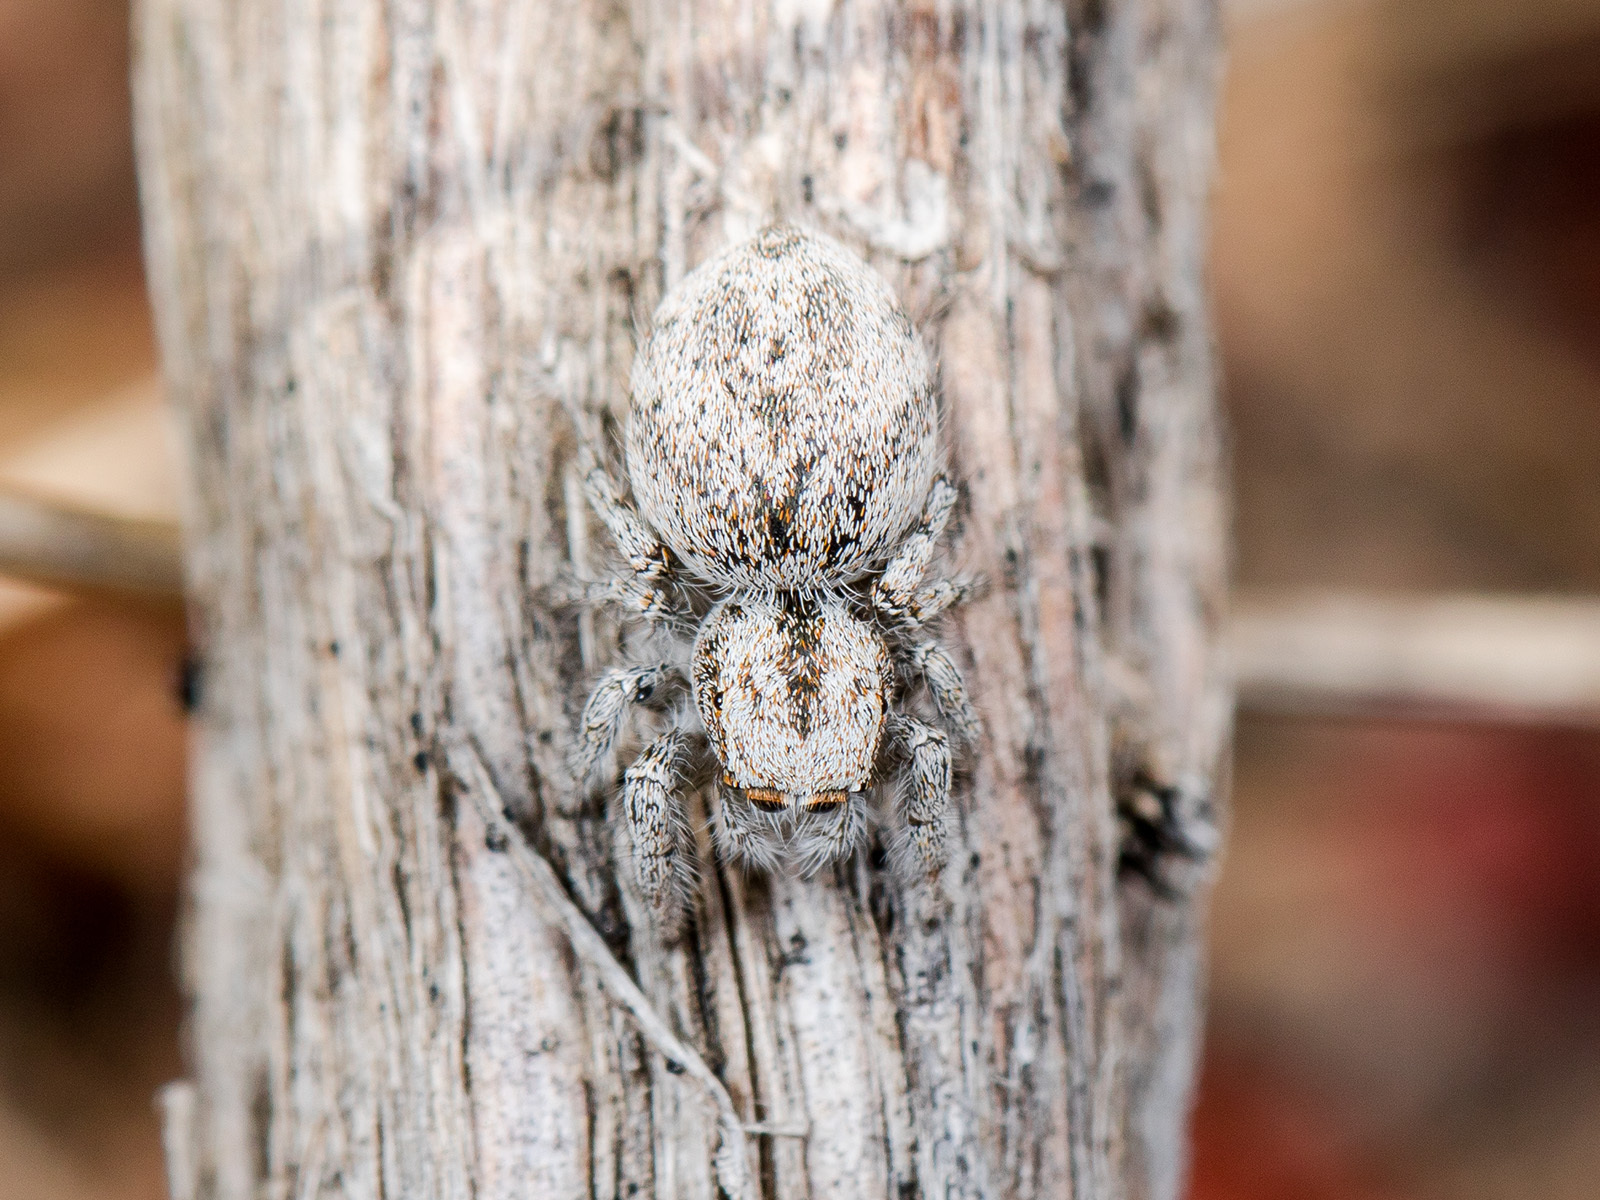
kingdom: Animalia
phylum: Arthropoda
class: Arachnida
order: Araneae
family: Salticidae
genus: Pseudomogrus
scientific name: Pseudomogrus dalaensis
